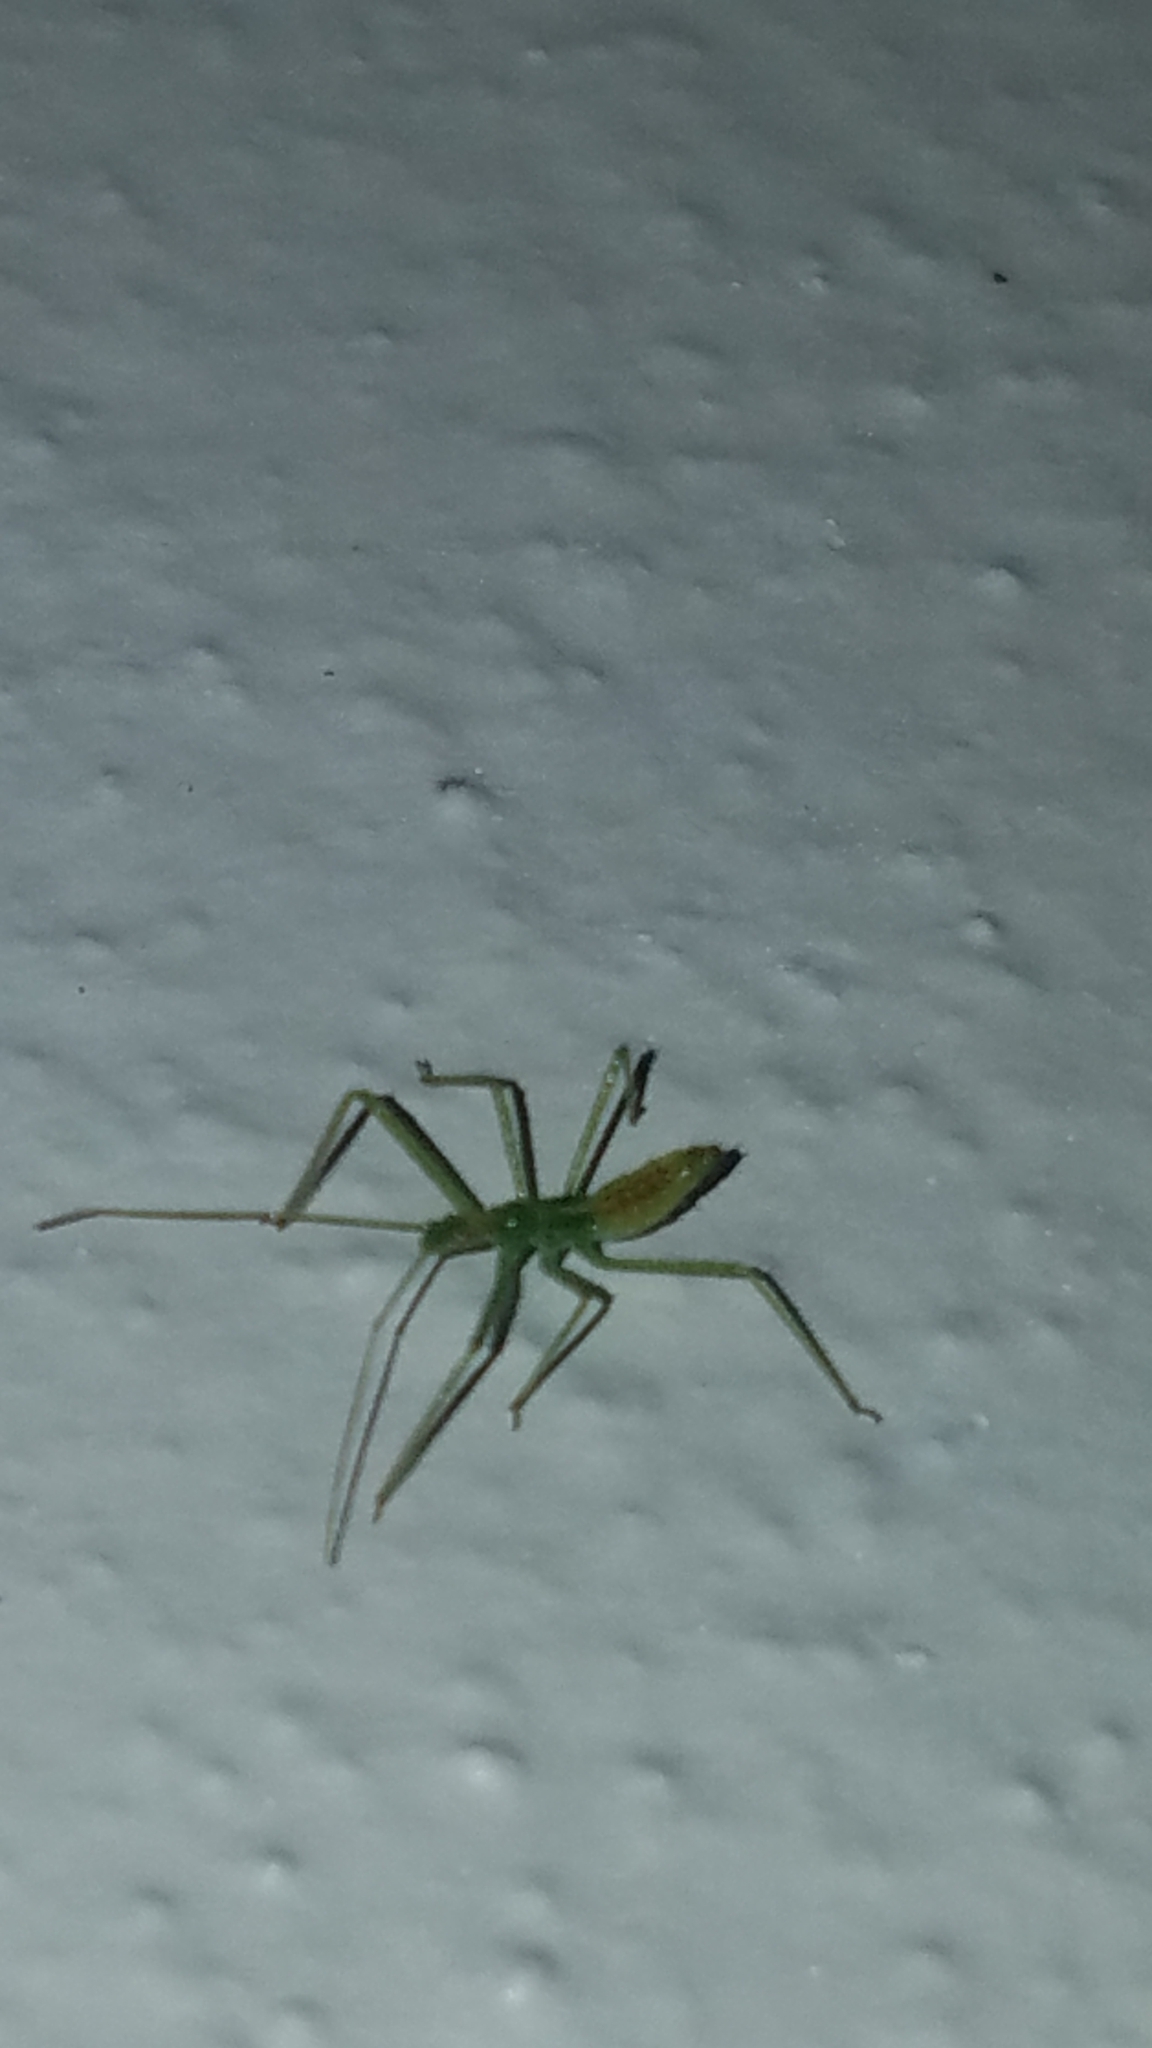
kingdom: Animalia
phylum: Arthropoda
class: Insecta
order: Hemiptera
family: Reduviidae
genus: Zelus
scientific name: Zelus luridus
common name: Pale green assassin bug
